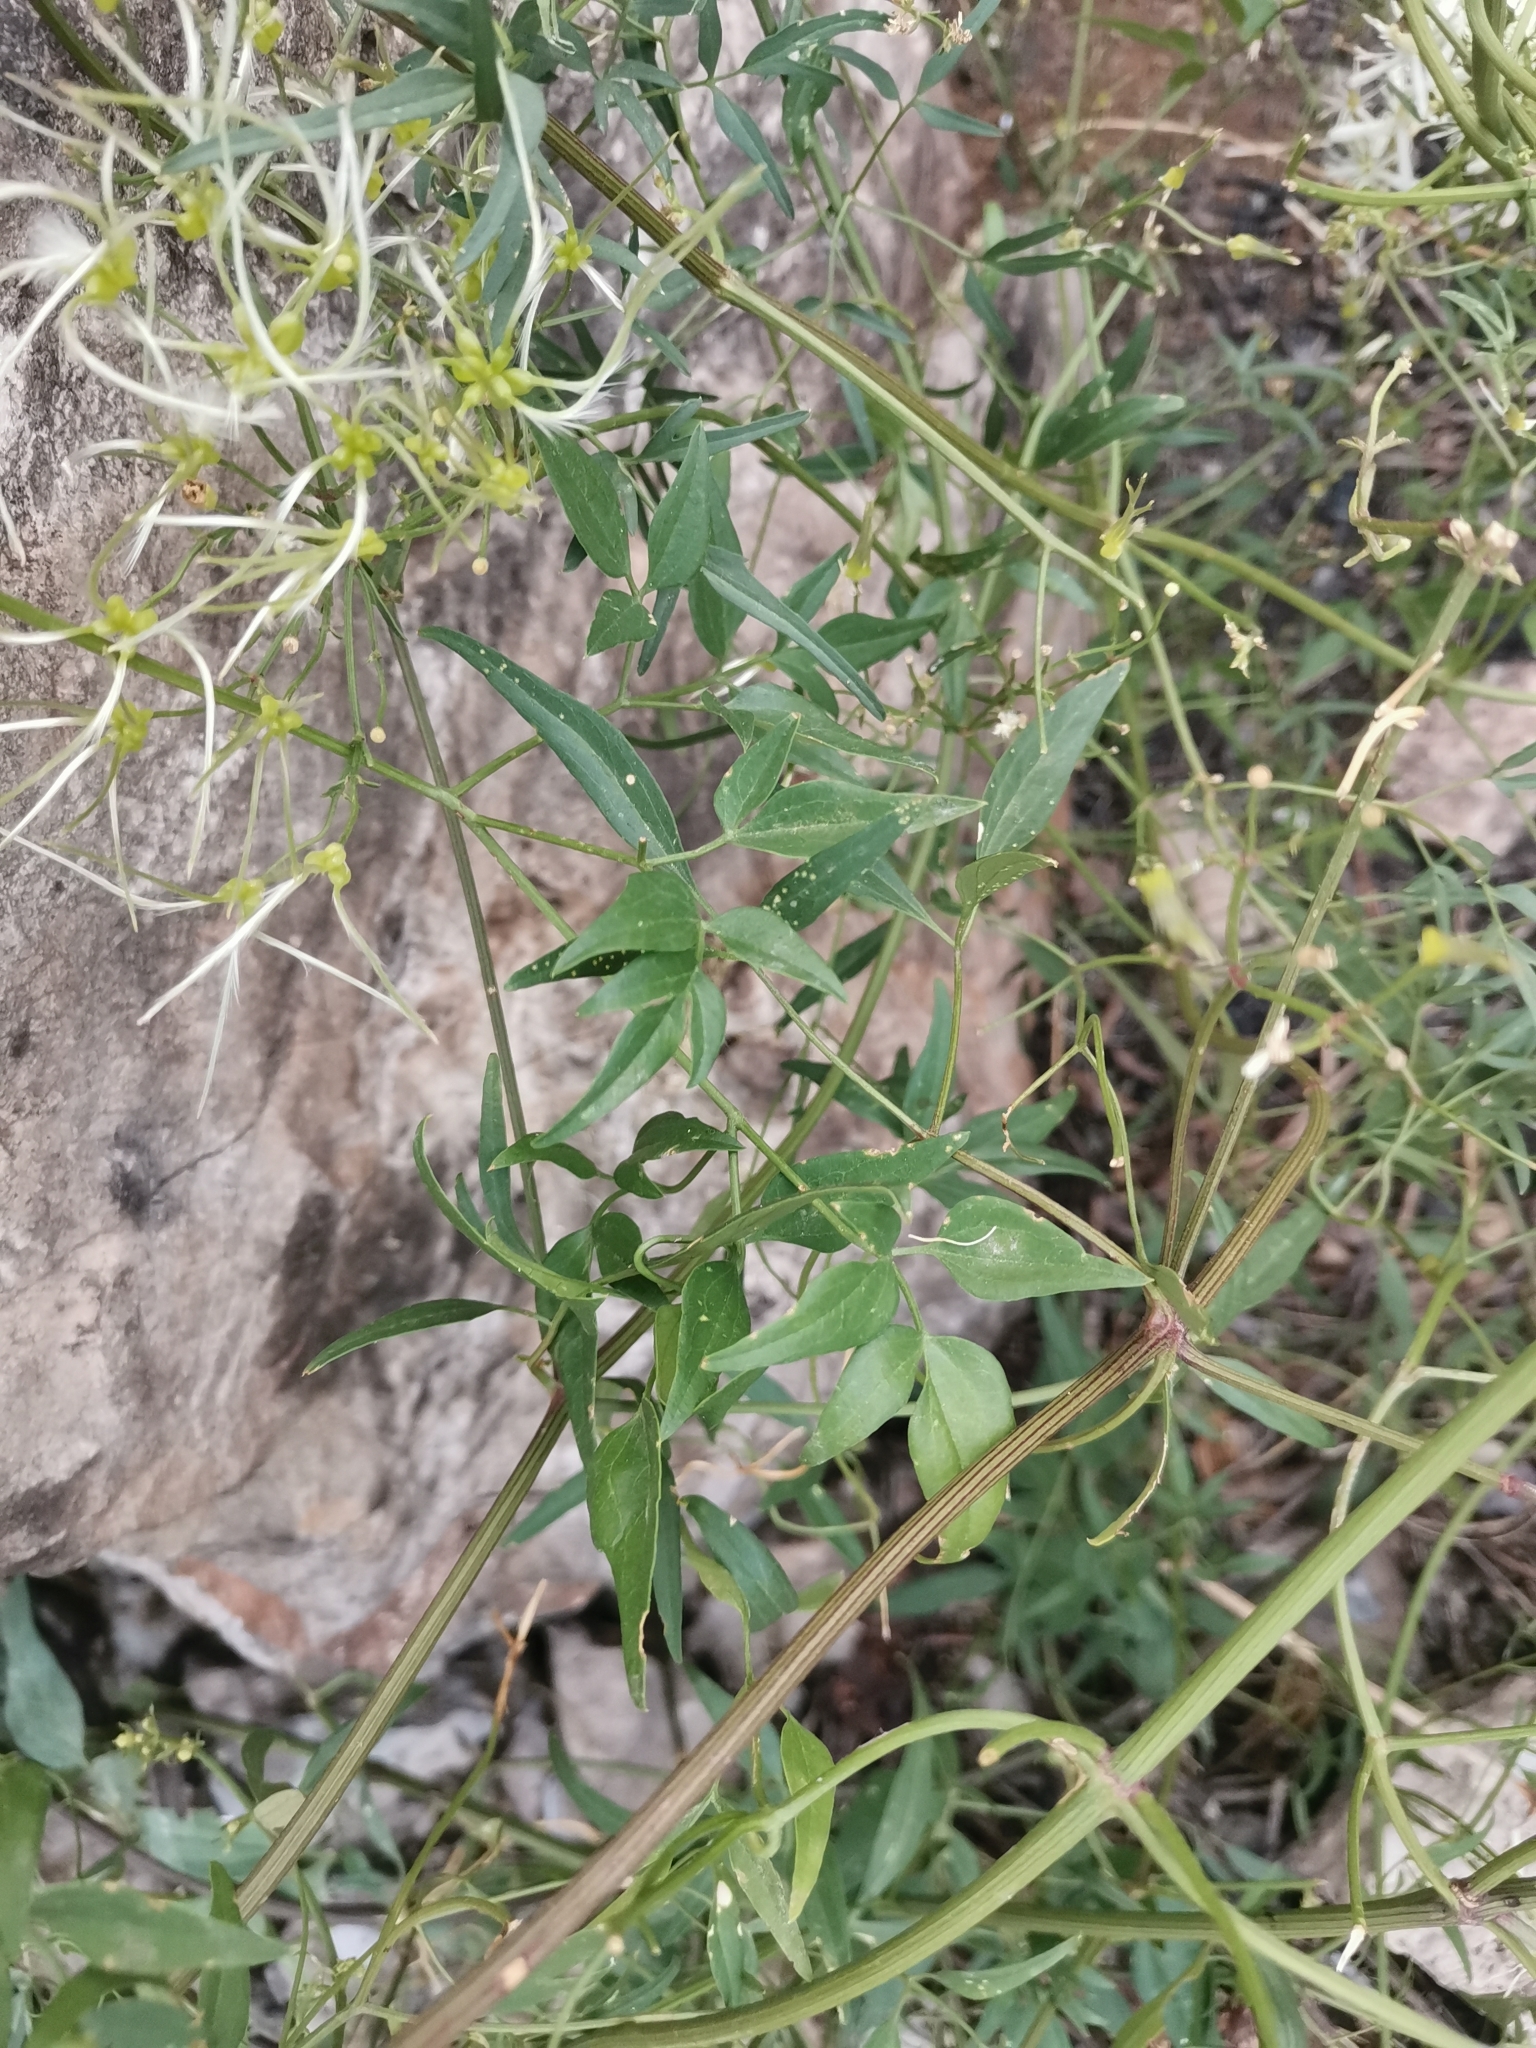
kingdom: Plantae
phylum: Tracheophyta
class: Magnoliopsida
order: Ranunculales
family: Ranunculaceae
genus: Clematis
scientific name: Clematis flammula
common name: Virgin's-bower
